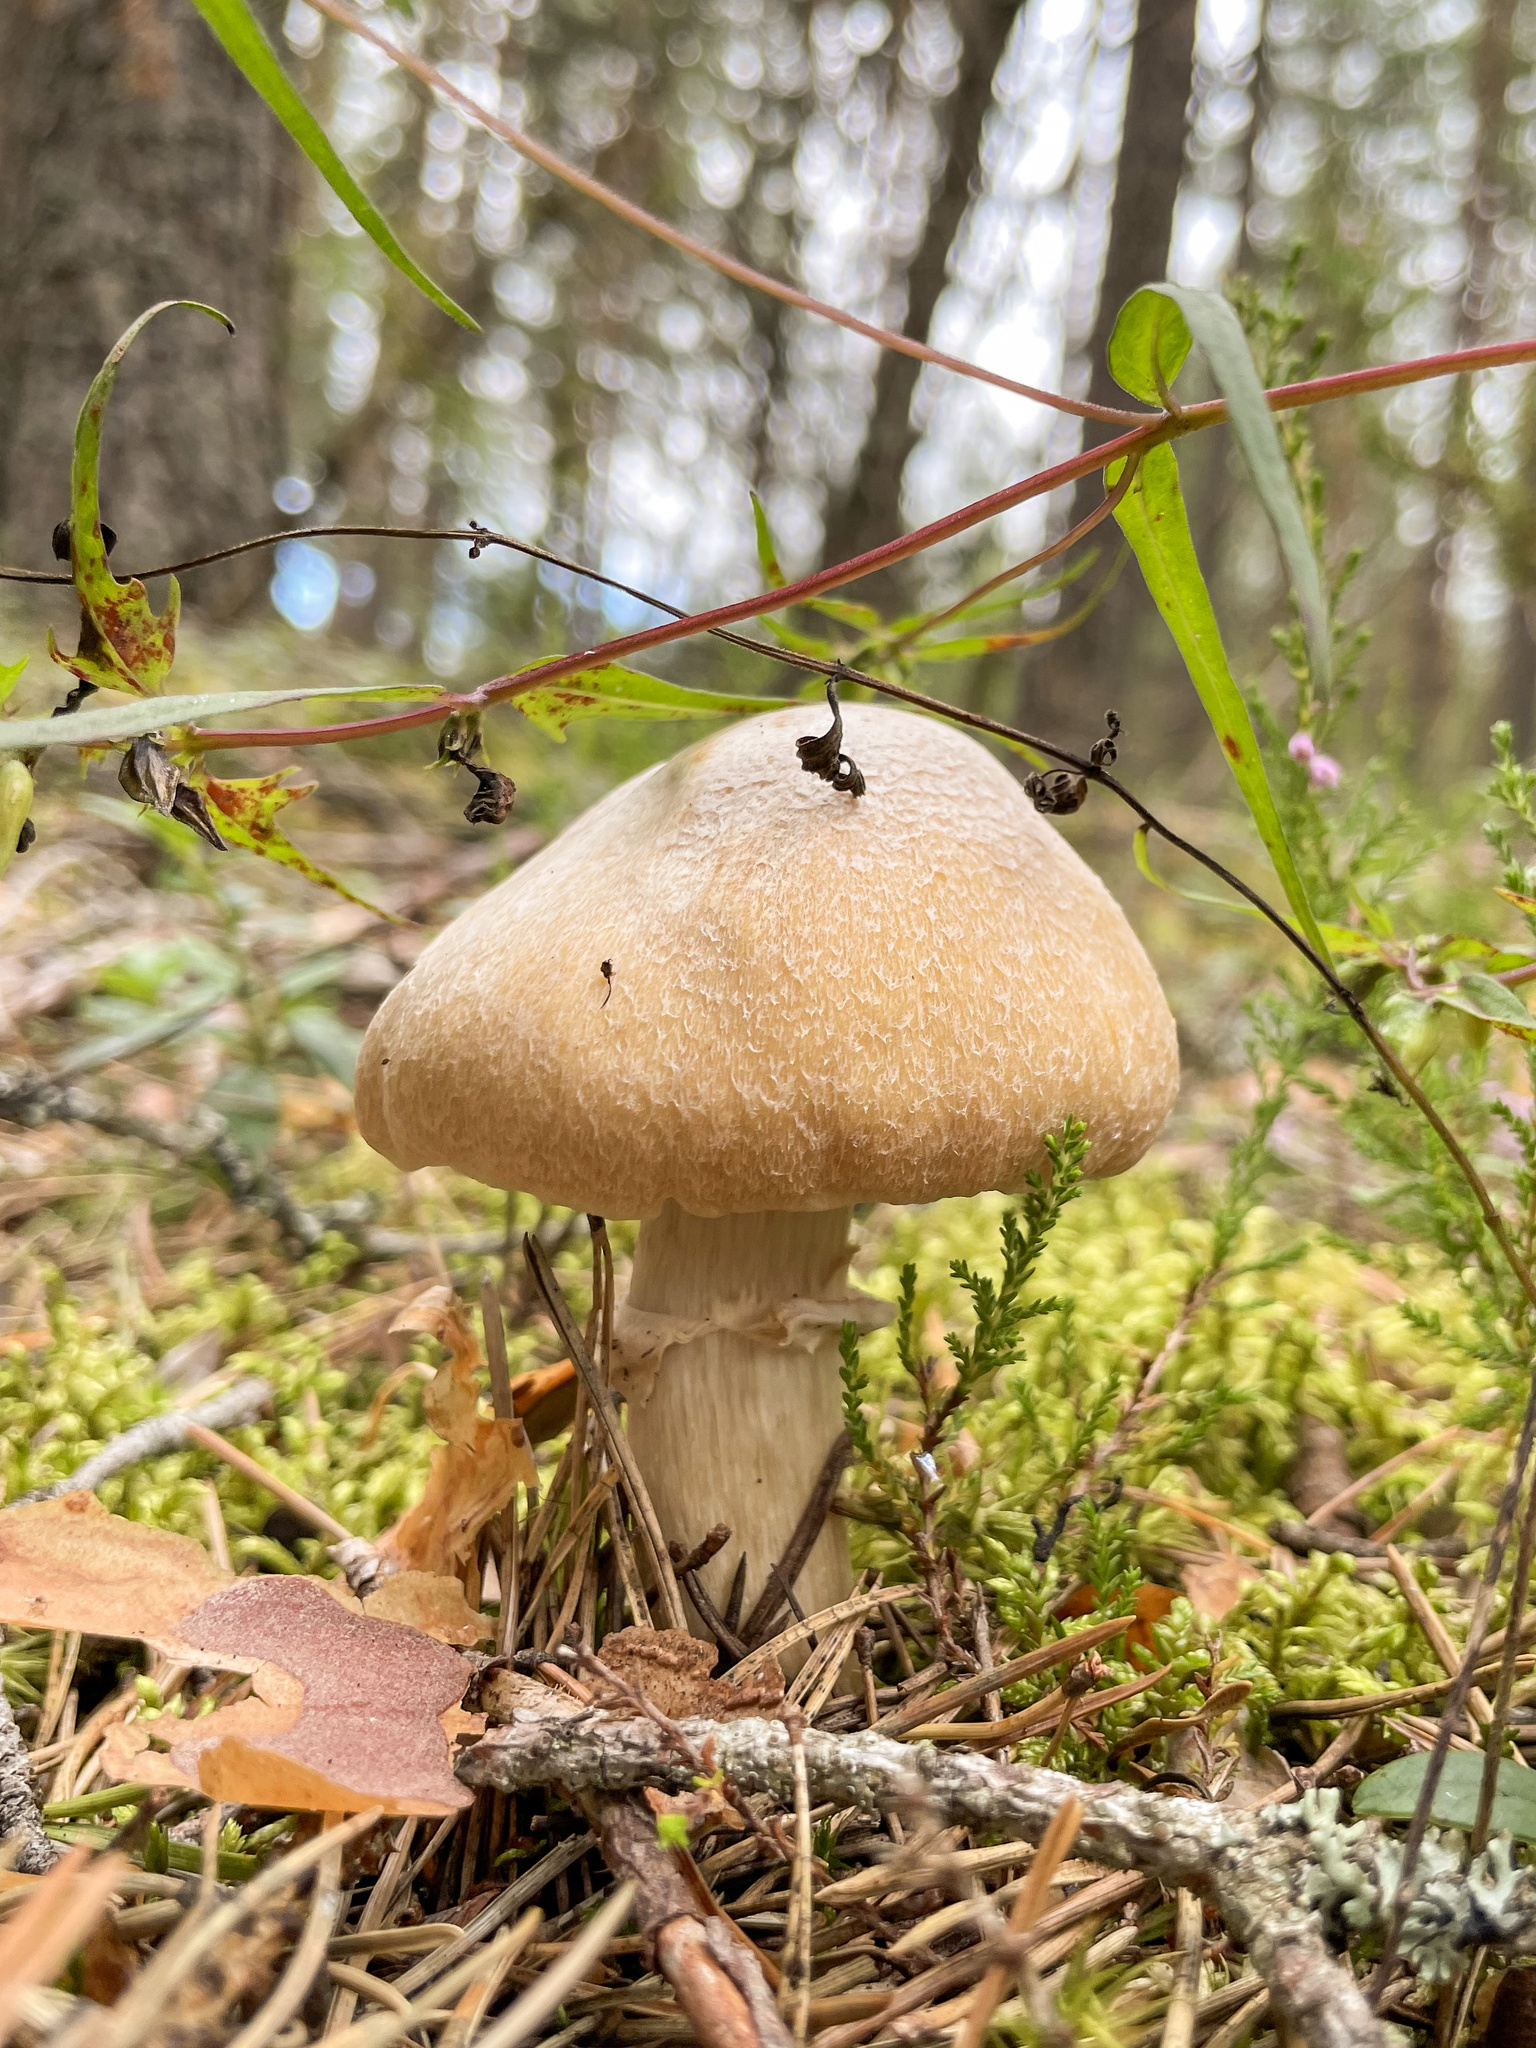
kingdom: Fungi
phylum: Basidiomycota
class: Agaricomycetes
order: Agaricales
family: Cortinariaceae
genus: Cortinarius
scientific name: Cortinarius caperatus
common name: The gypsy
